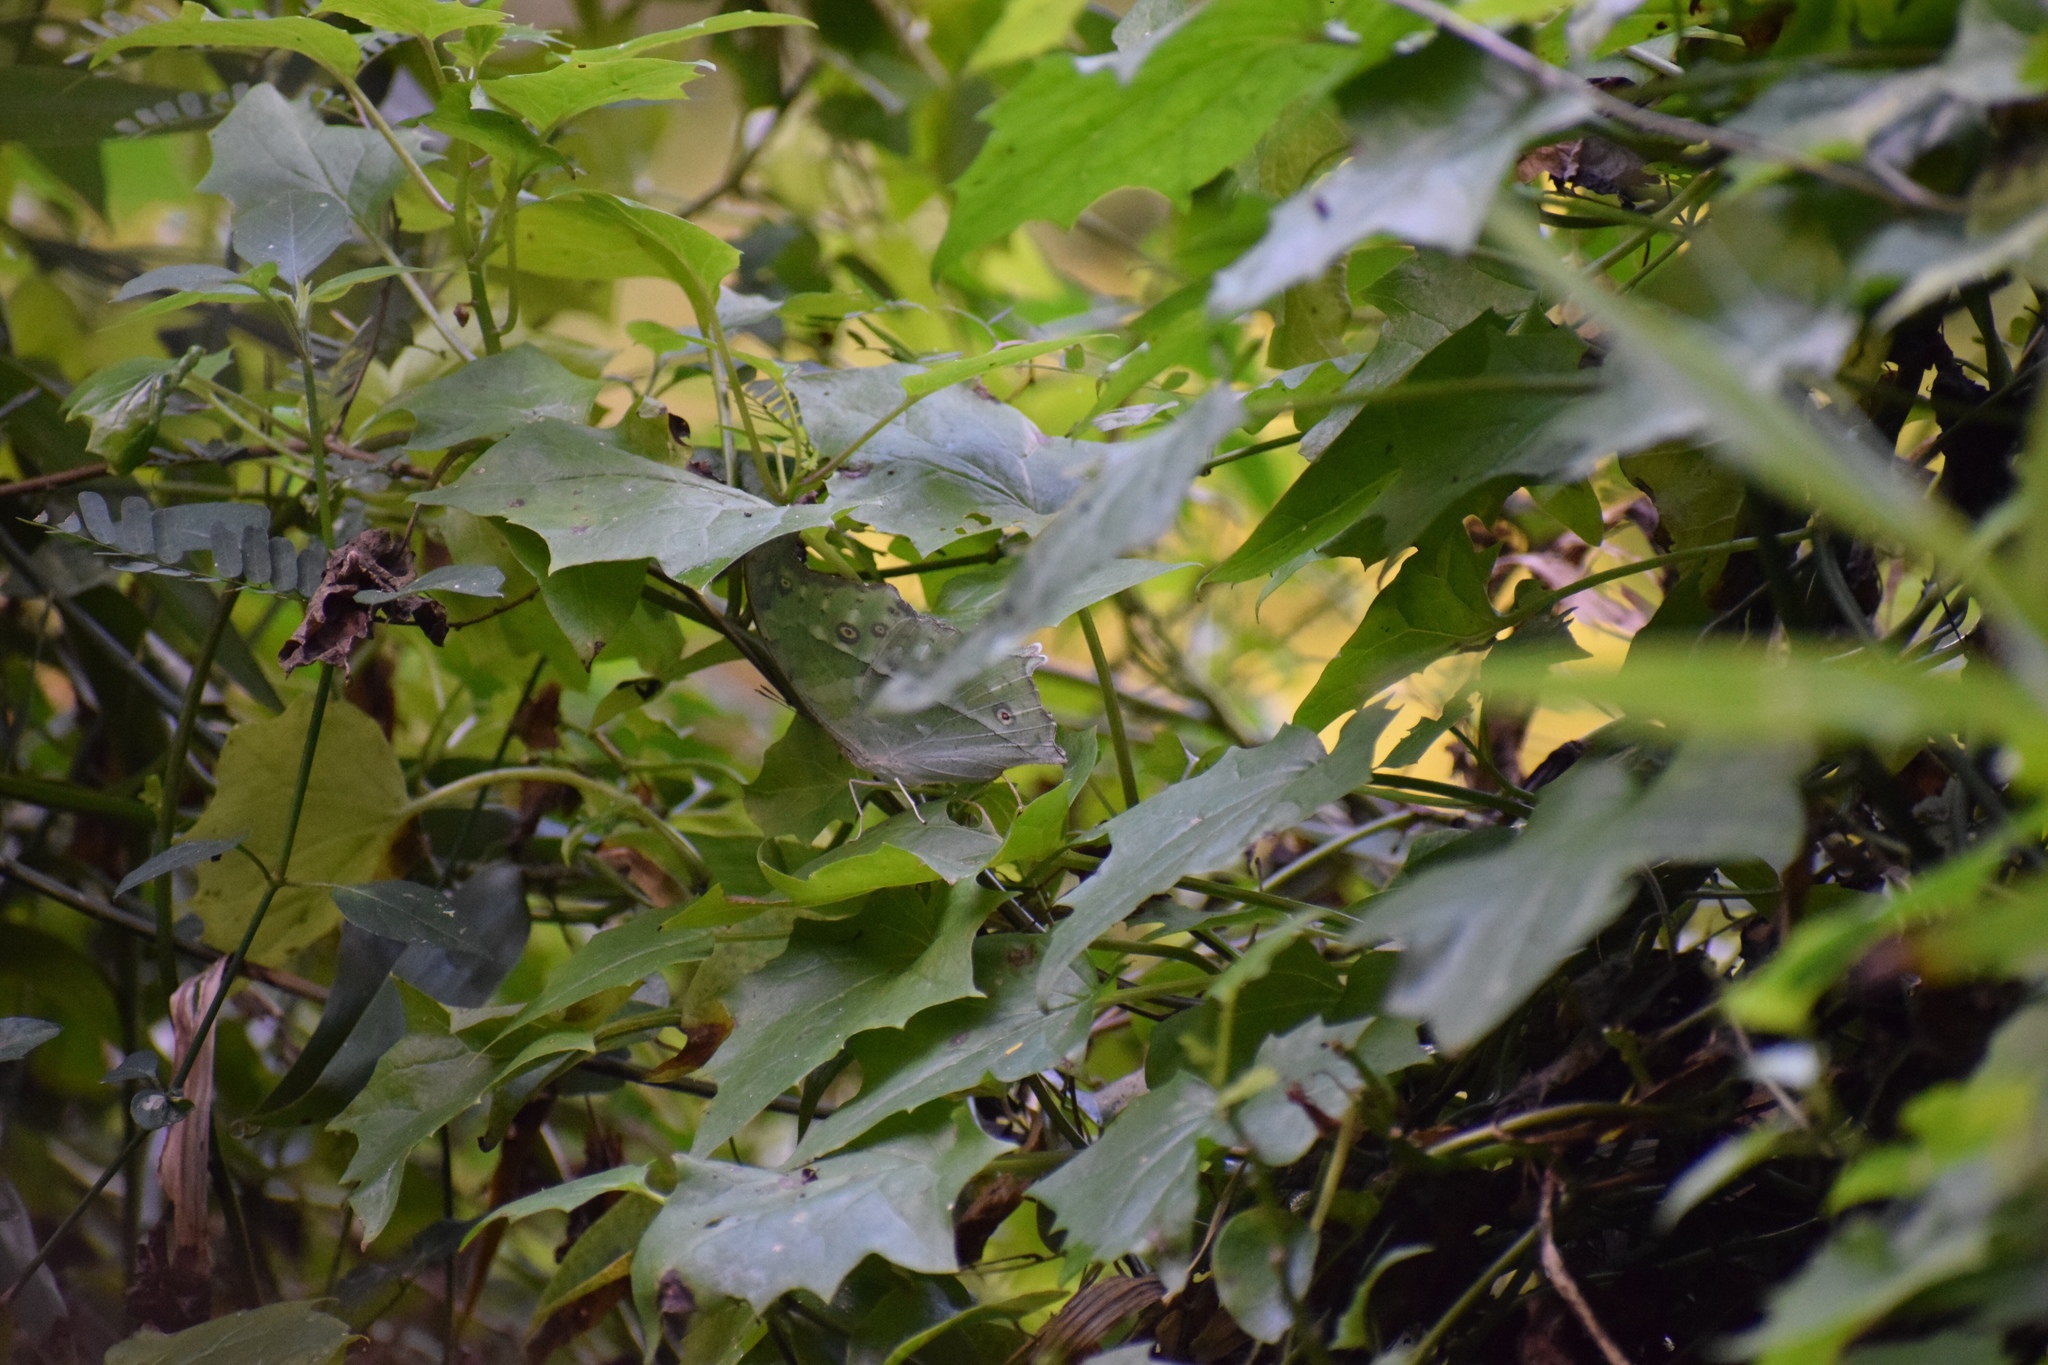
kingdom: Animalia
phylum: Arthropoda
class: Insecta
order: Lepidoptera
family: Nymphalidae
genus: Salamis
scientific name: Salamis Protogoniomorpha parhassus
